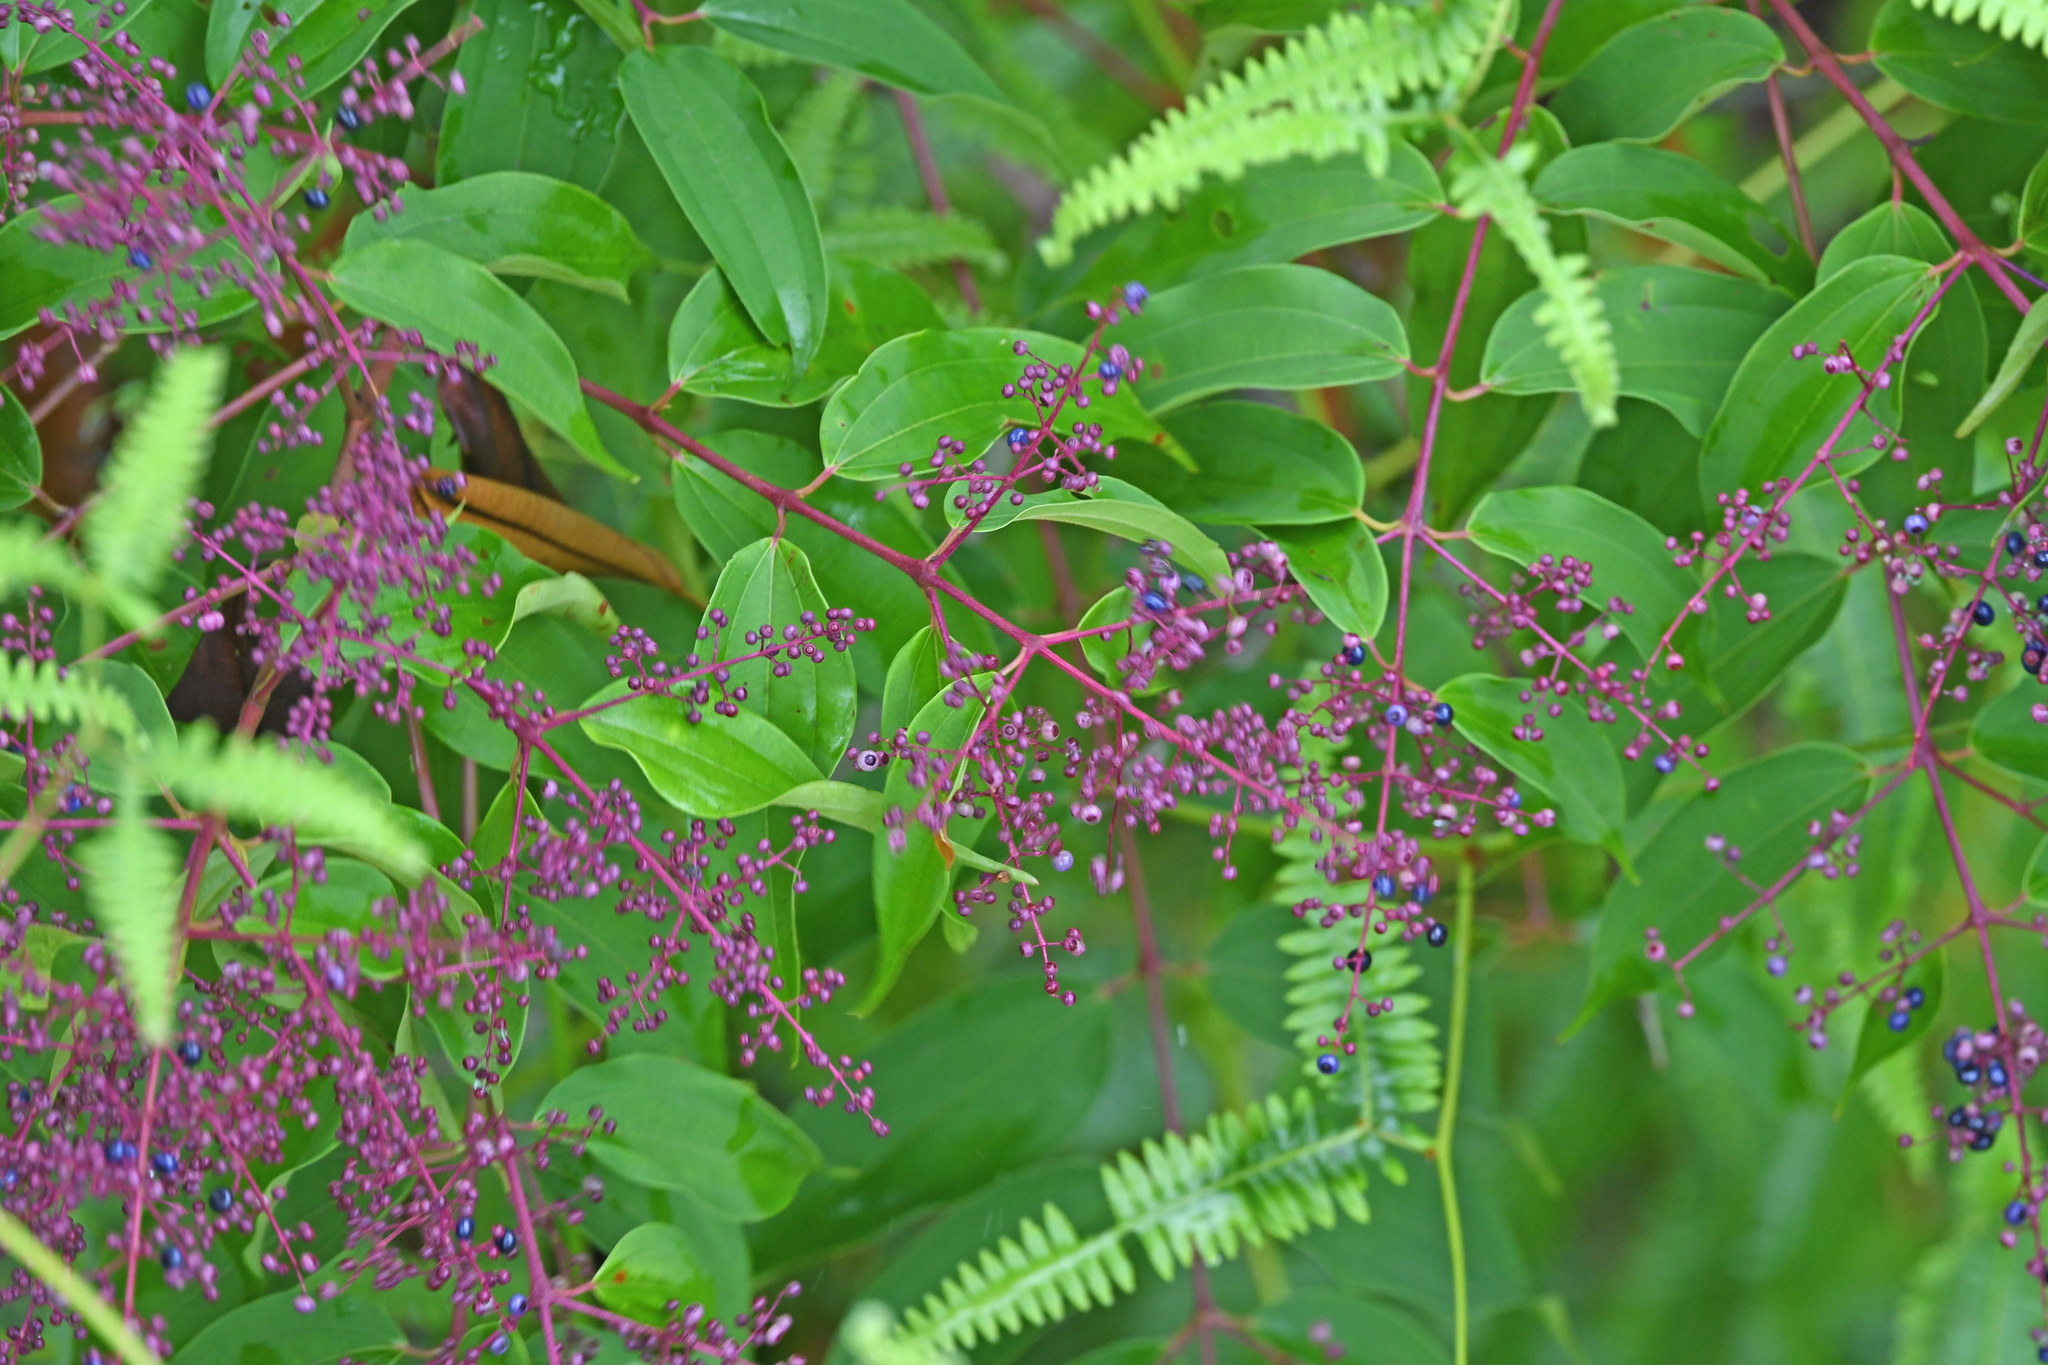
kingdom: Plantae
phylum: Tracheophyta
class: Magnoliopsida
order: Myrtales
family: Melastomataceae
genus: Miconia
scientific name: Miconia minutiflora
